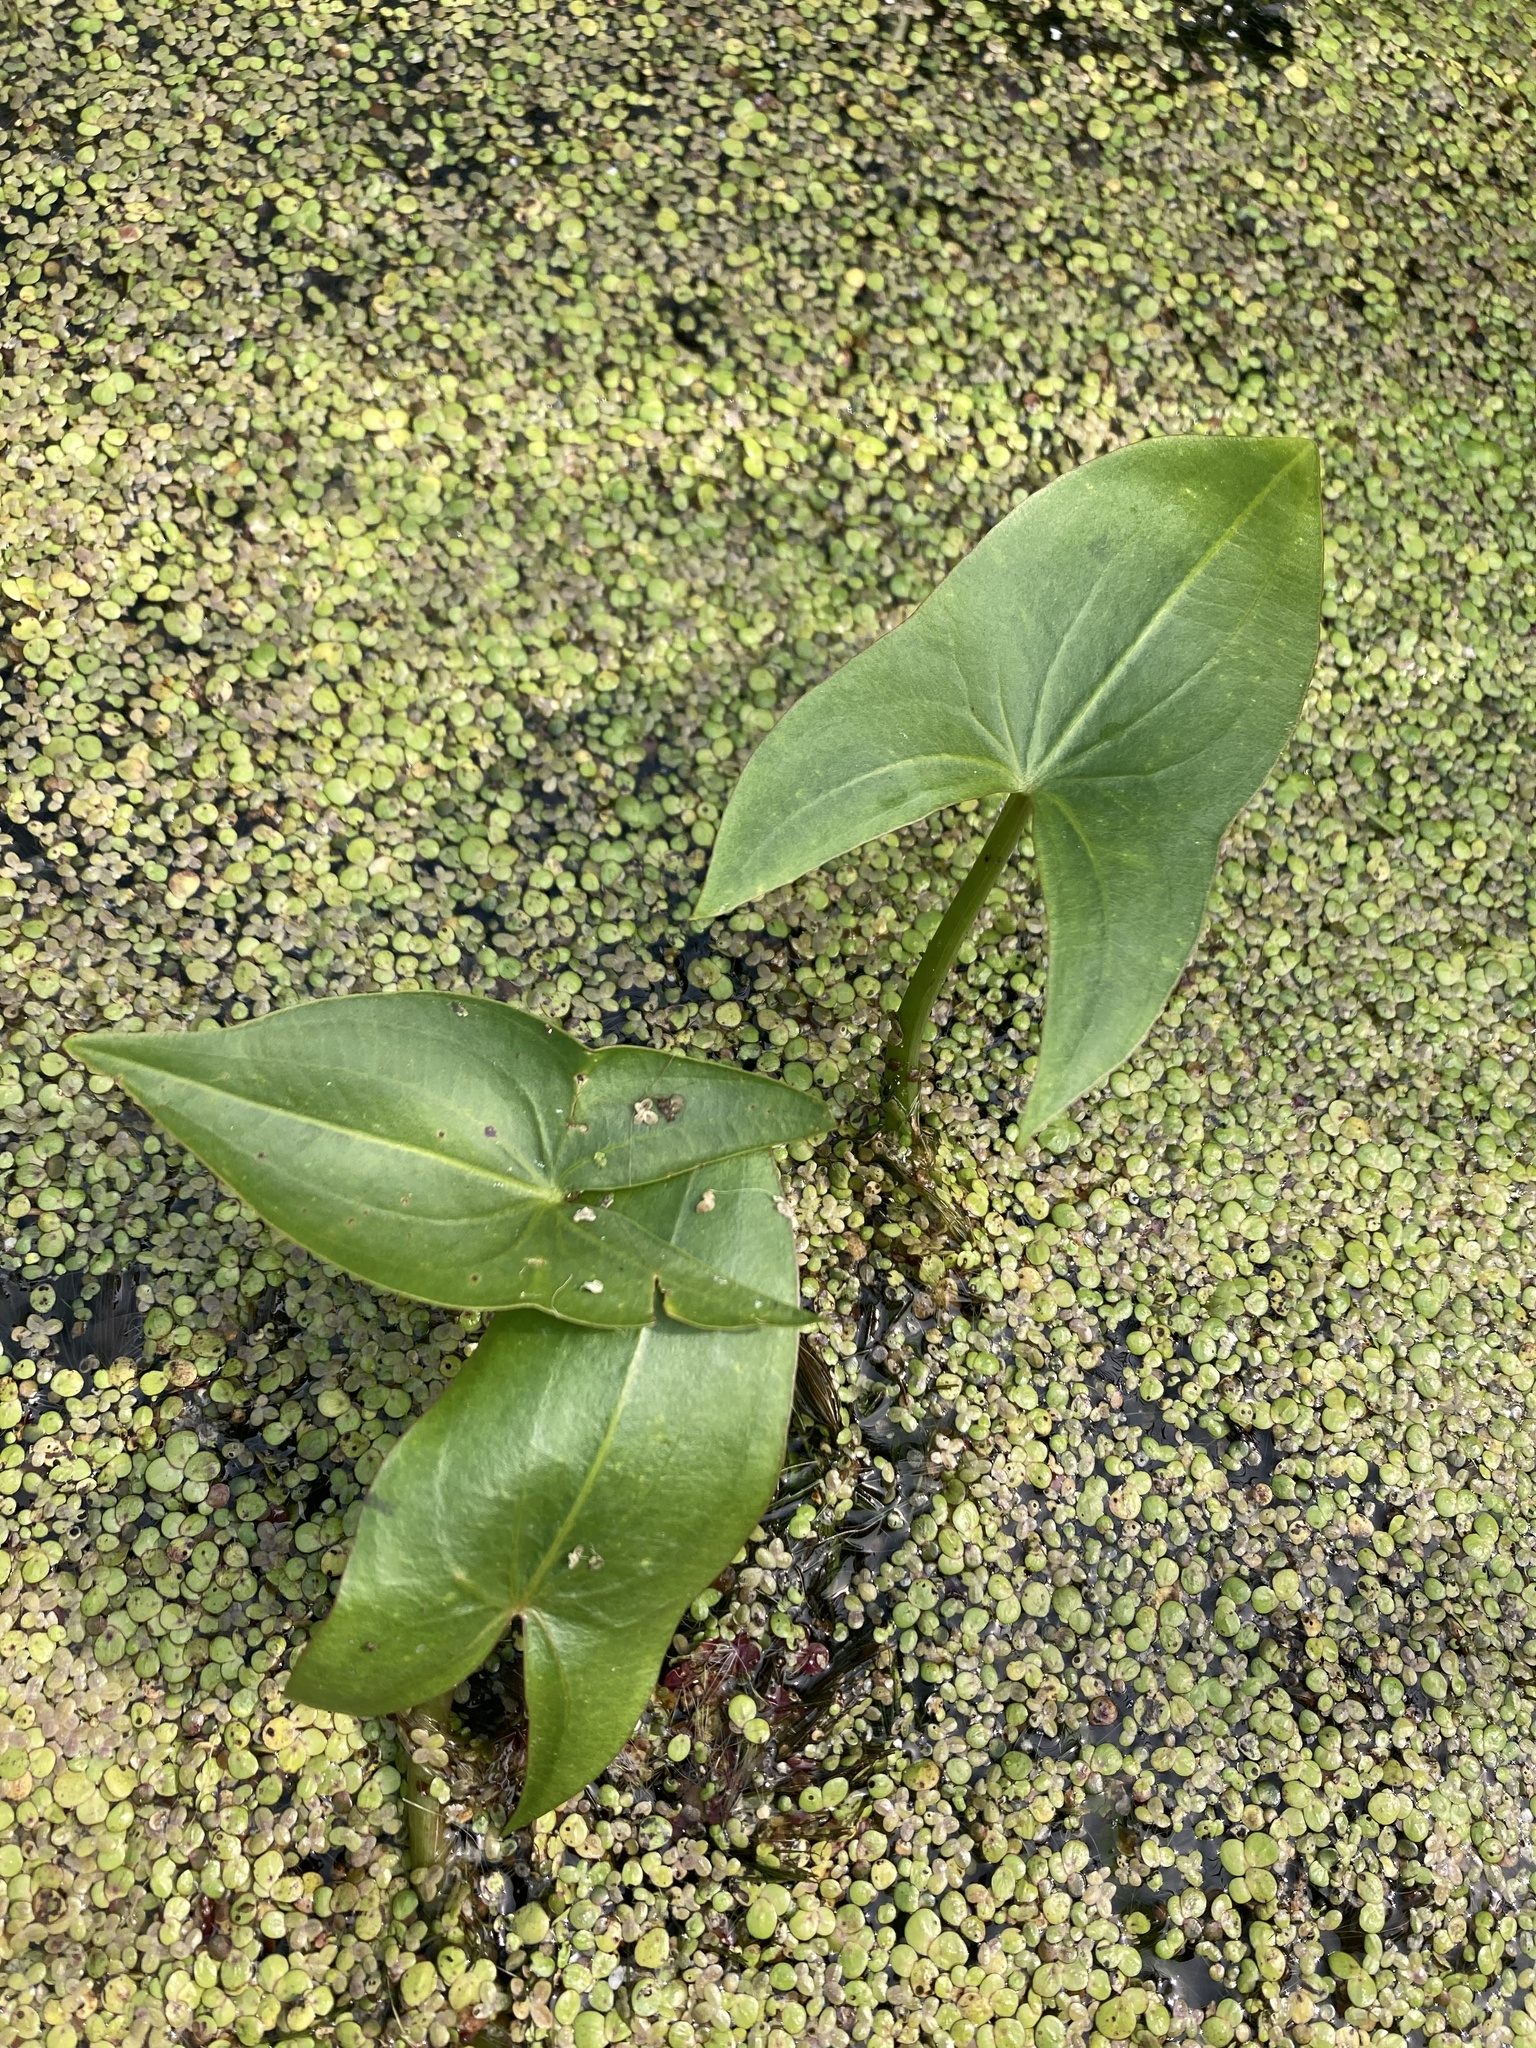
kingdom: Plantae
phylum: Tracheophyta
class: Liliopsida
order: Alismatales
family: Alismataceae
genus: Sagittaria
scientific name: Sagittaria cuneata
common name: Northern arrowhead
